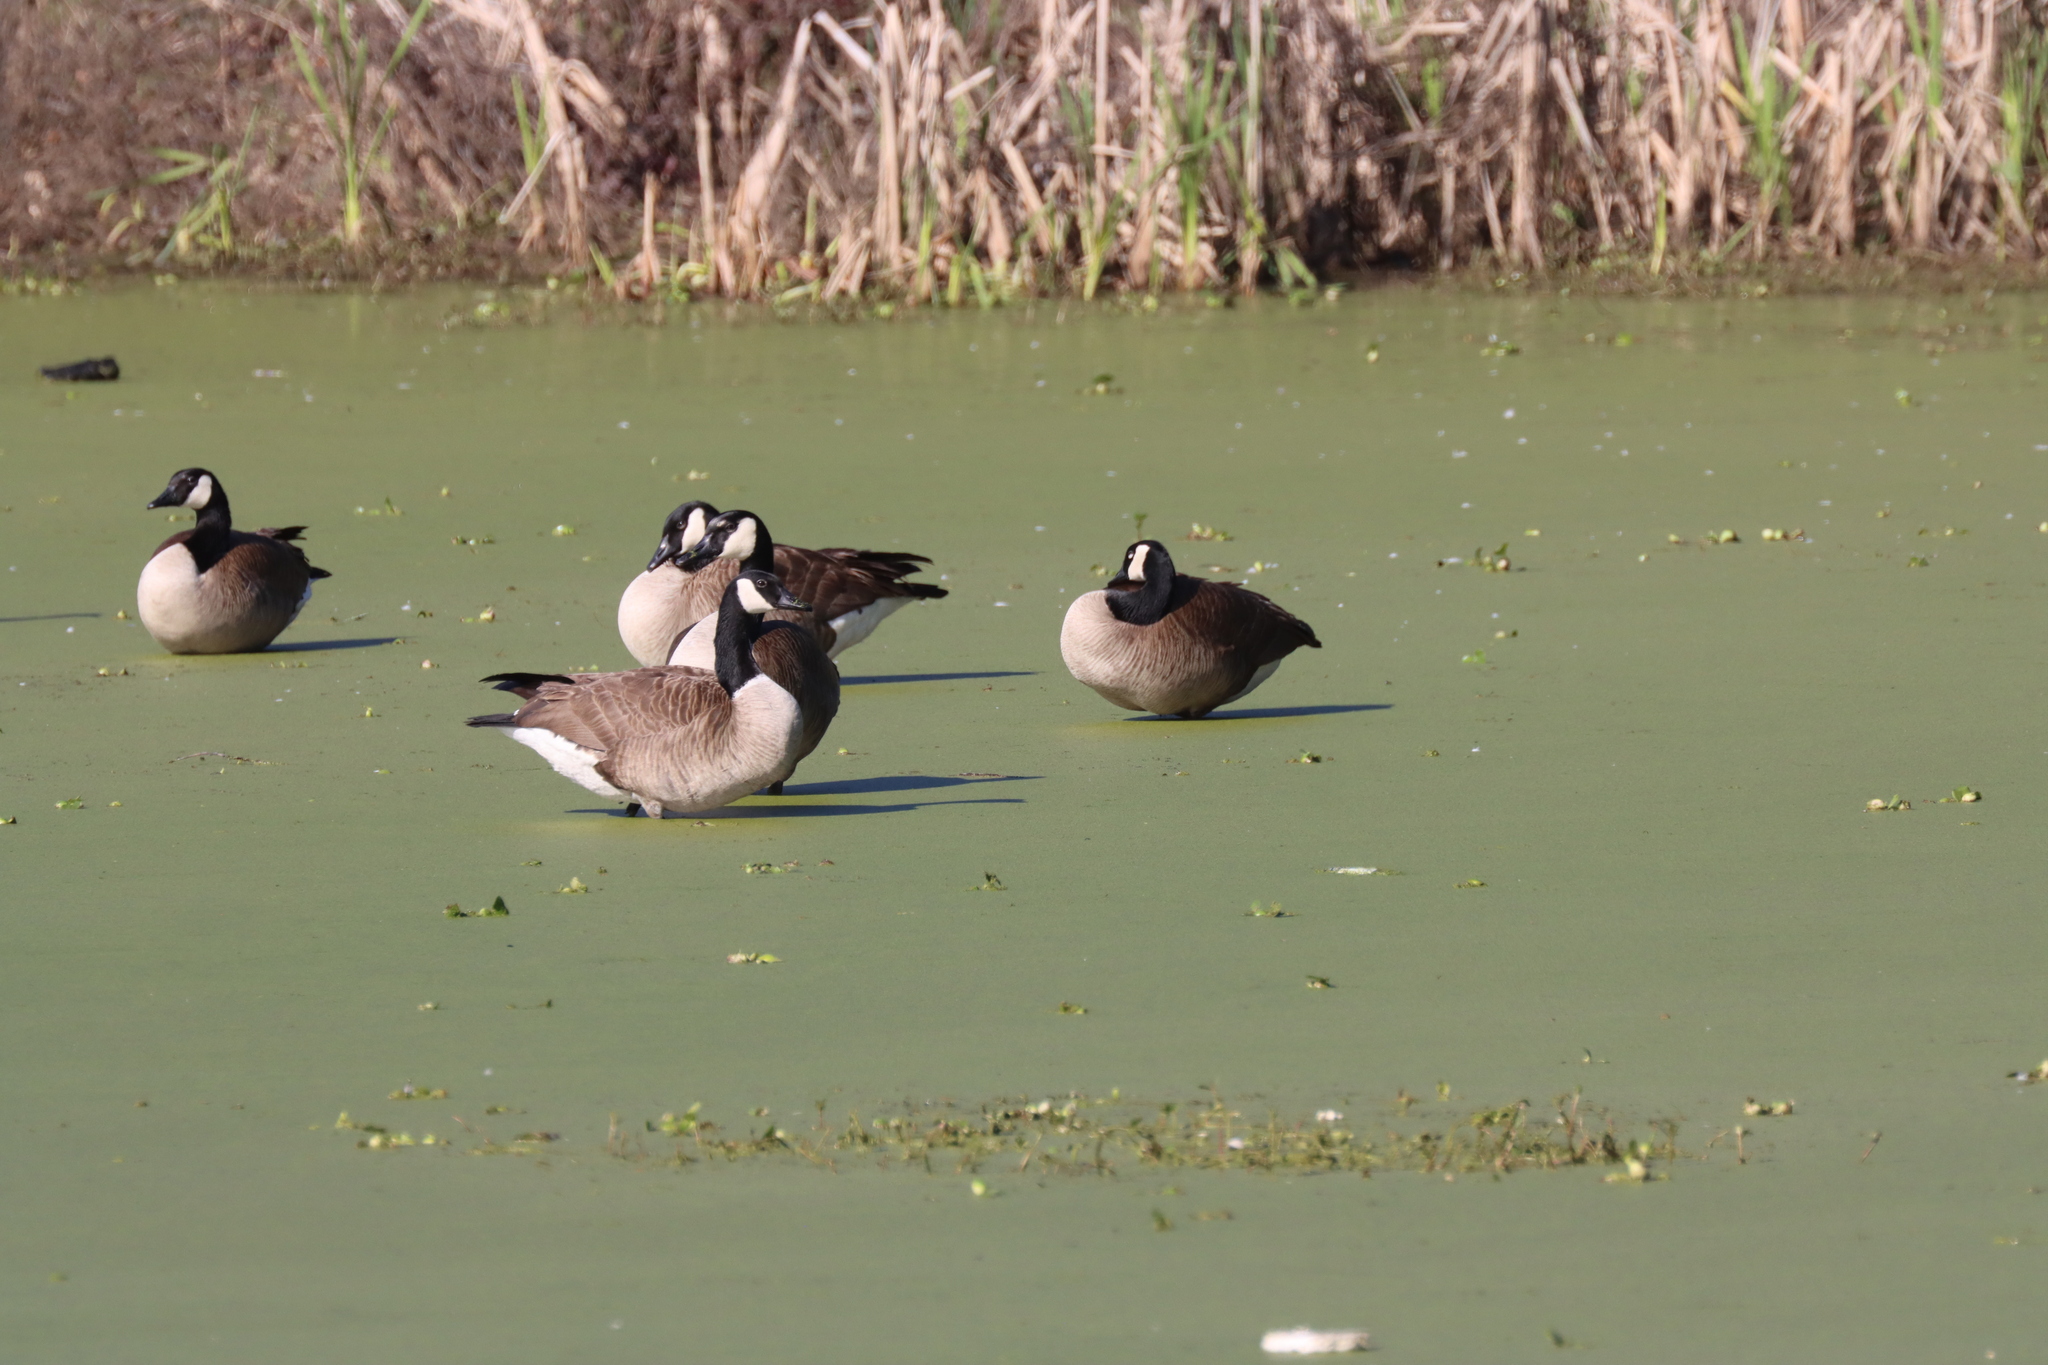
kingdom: Animalia
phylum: Chordata
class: Aves
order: Anseriformes
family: Anatidae
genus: Branta
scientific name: Branta canadensis
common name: Canada goose
